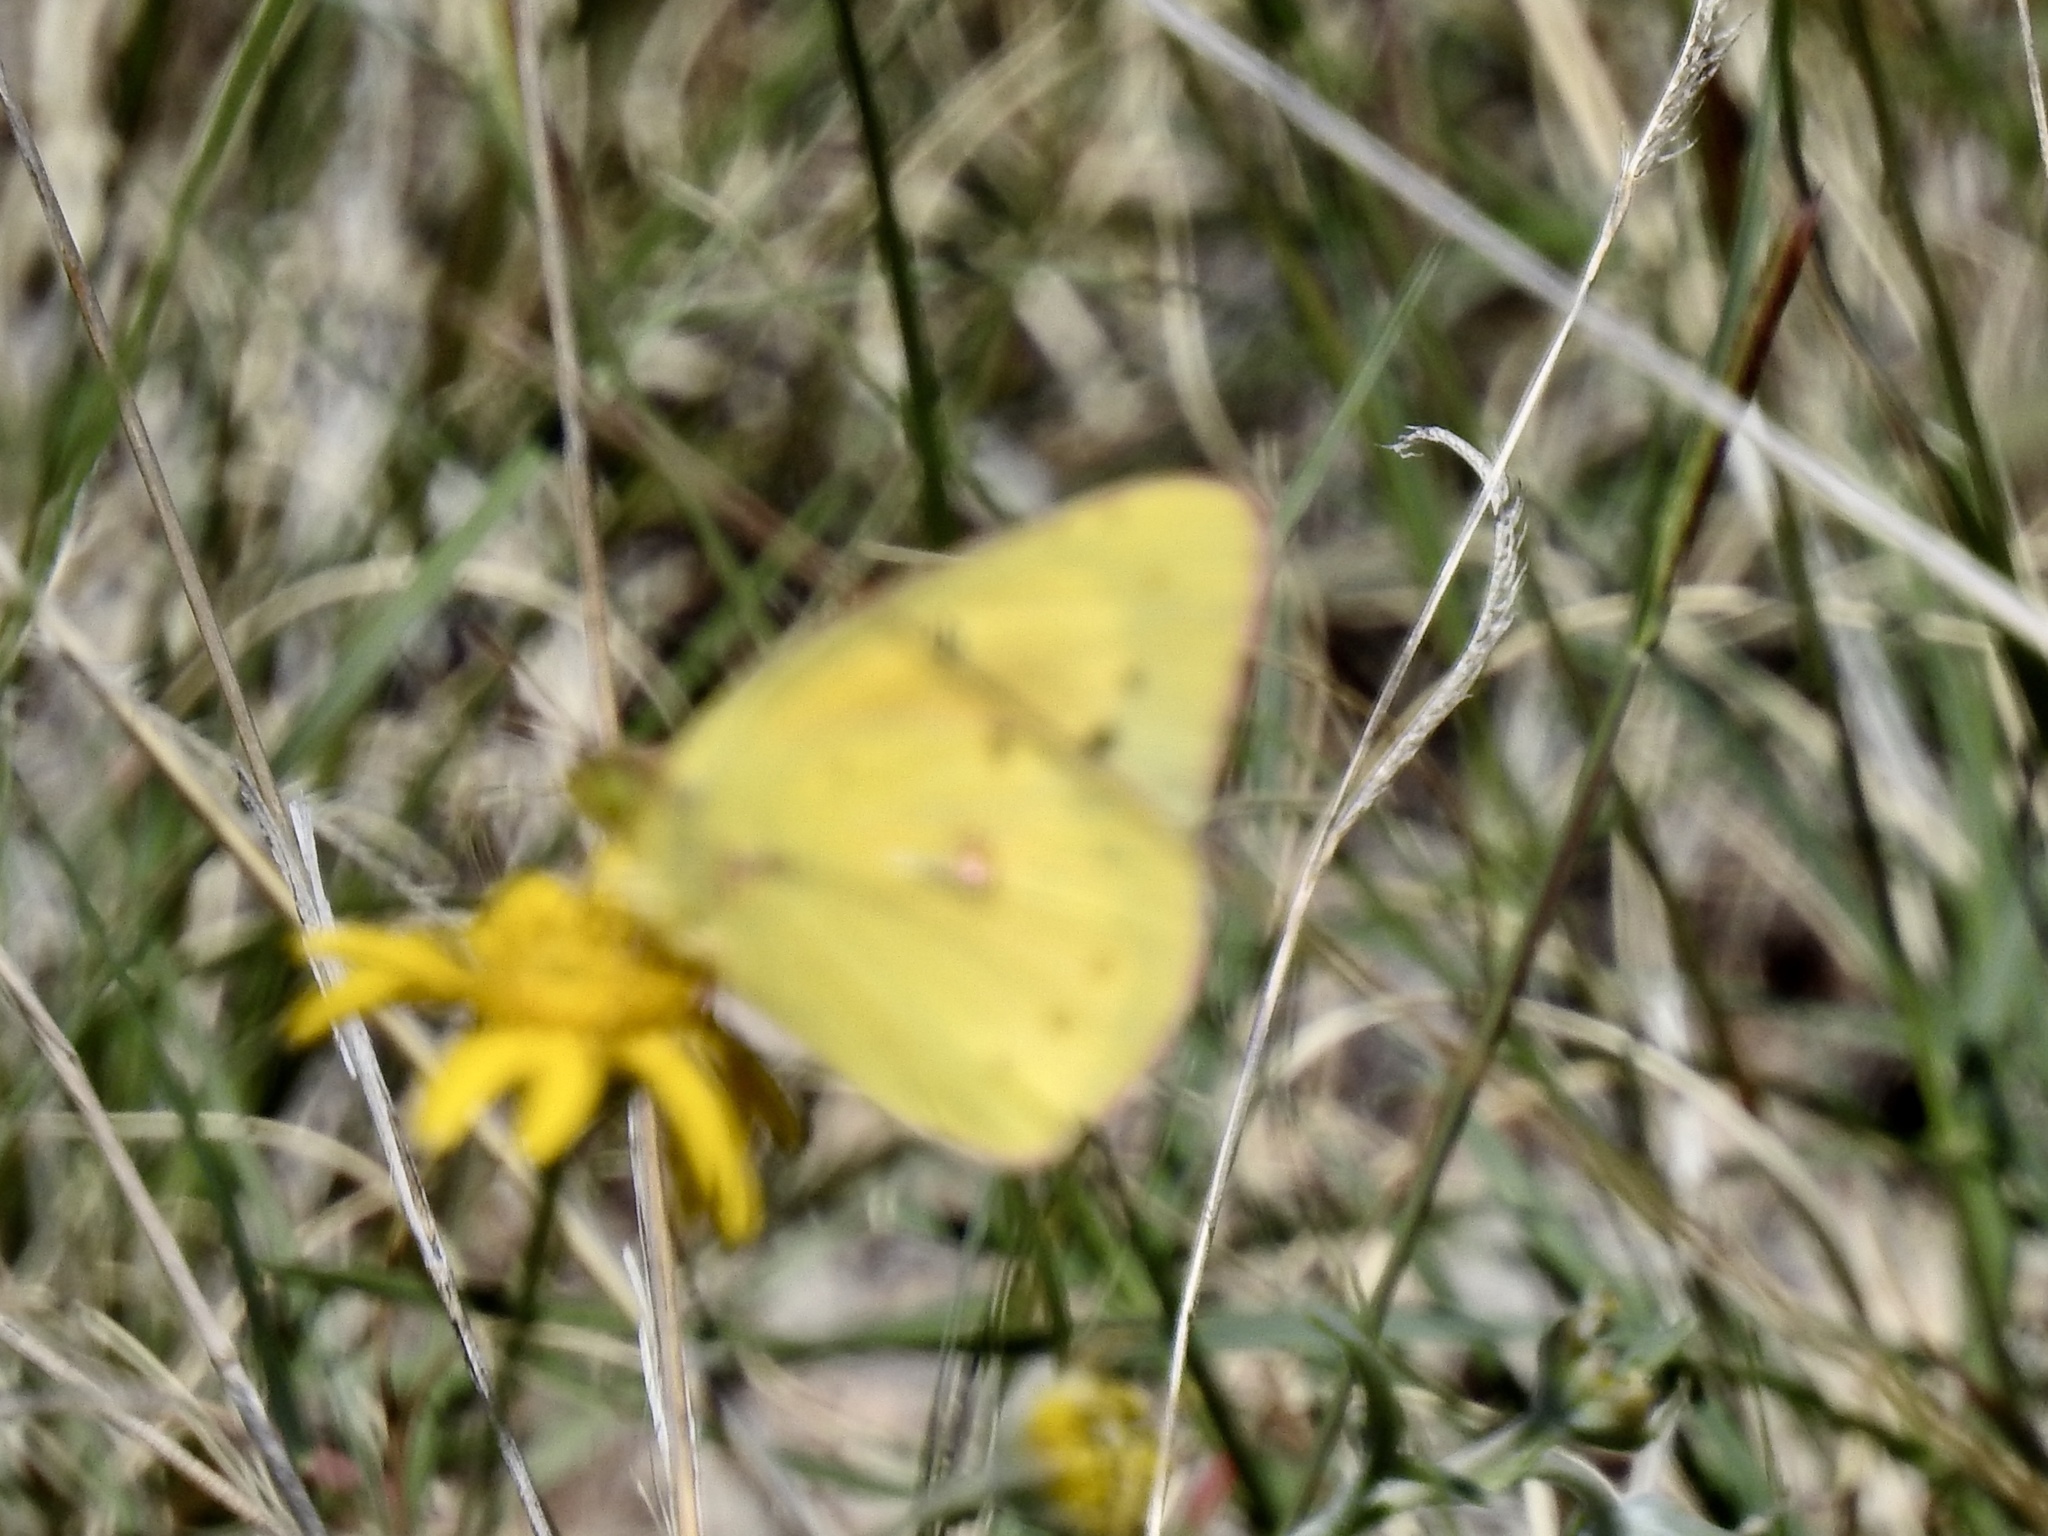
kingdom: Animalia
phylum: Arthropoda
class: Insecta
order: Lepidoptera
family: Pieridae
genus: Colias
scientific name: Colias eurytheme
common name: Alfalfa butterfly
